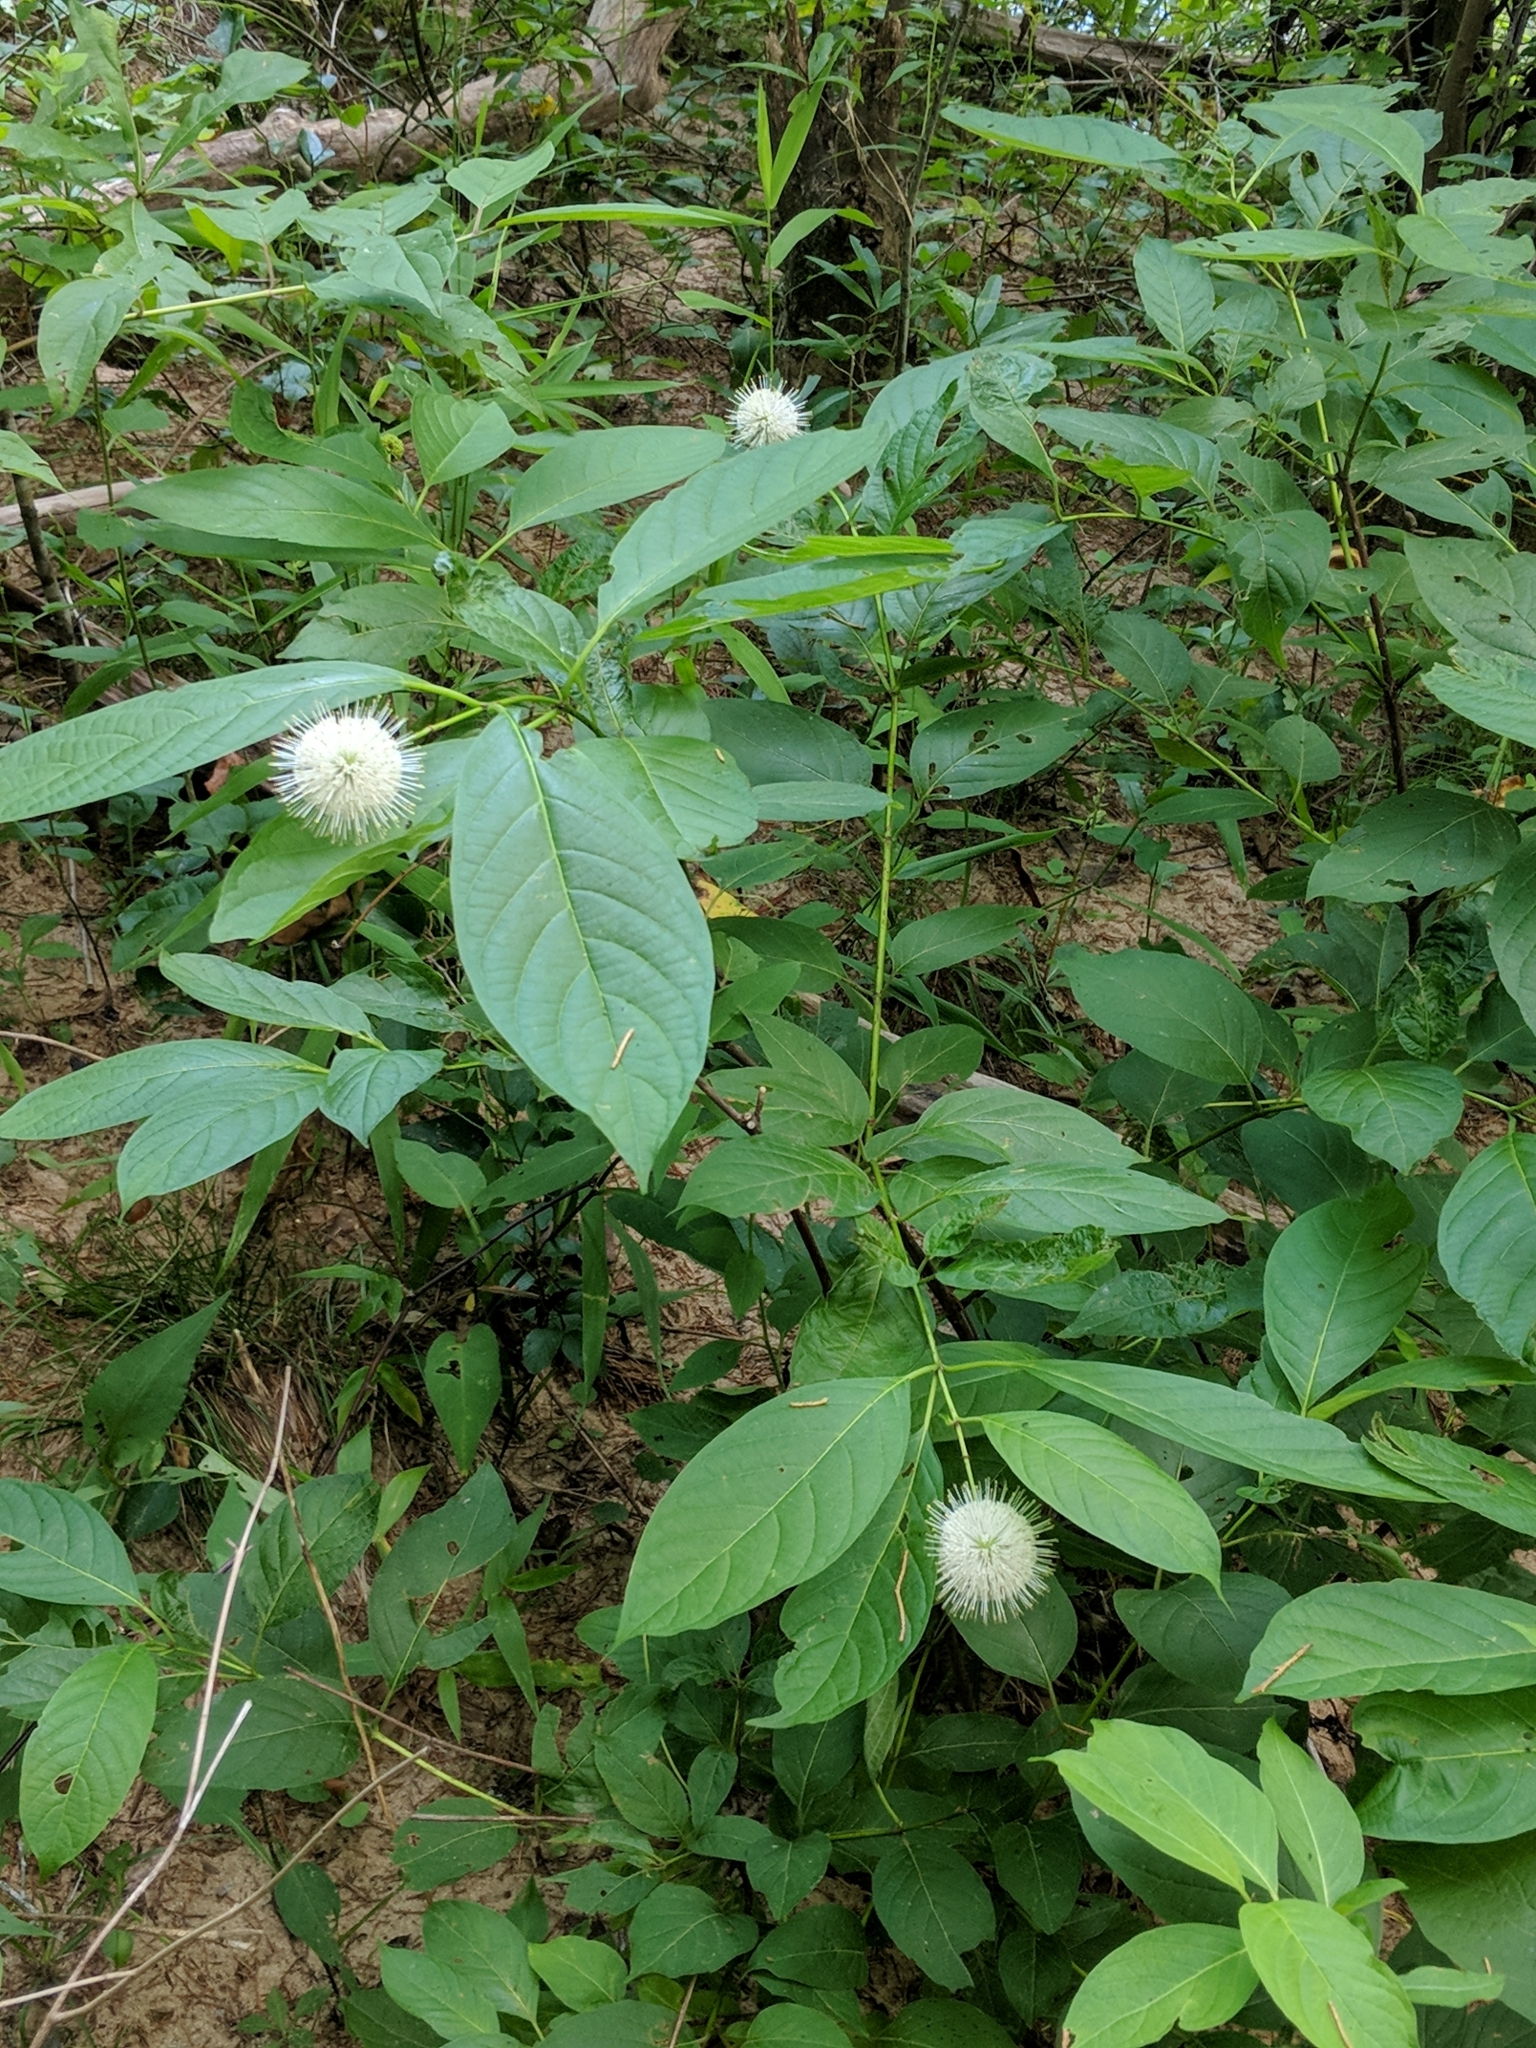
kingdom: Plantae
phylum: Tracheophyta
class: Magnoliopsida
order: Gentianales
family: Rubiaceae
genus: Cephalanthus
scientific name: Cephalanthus occidentalis
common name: Button-willow
